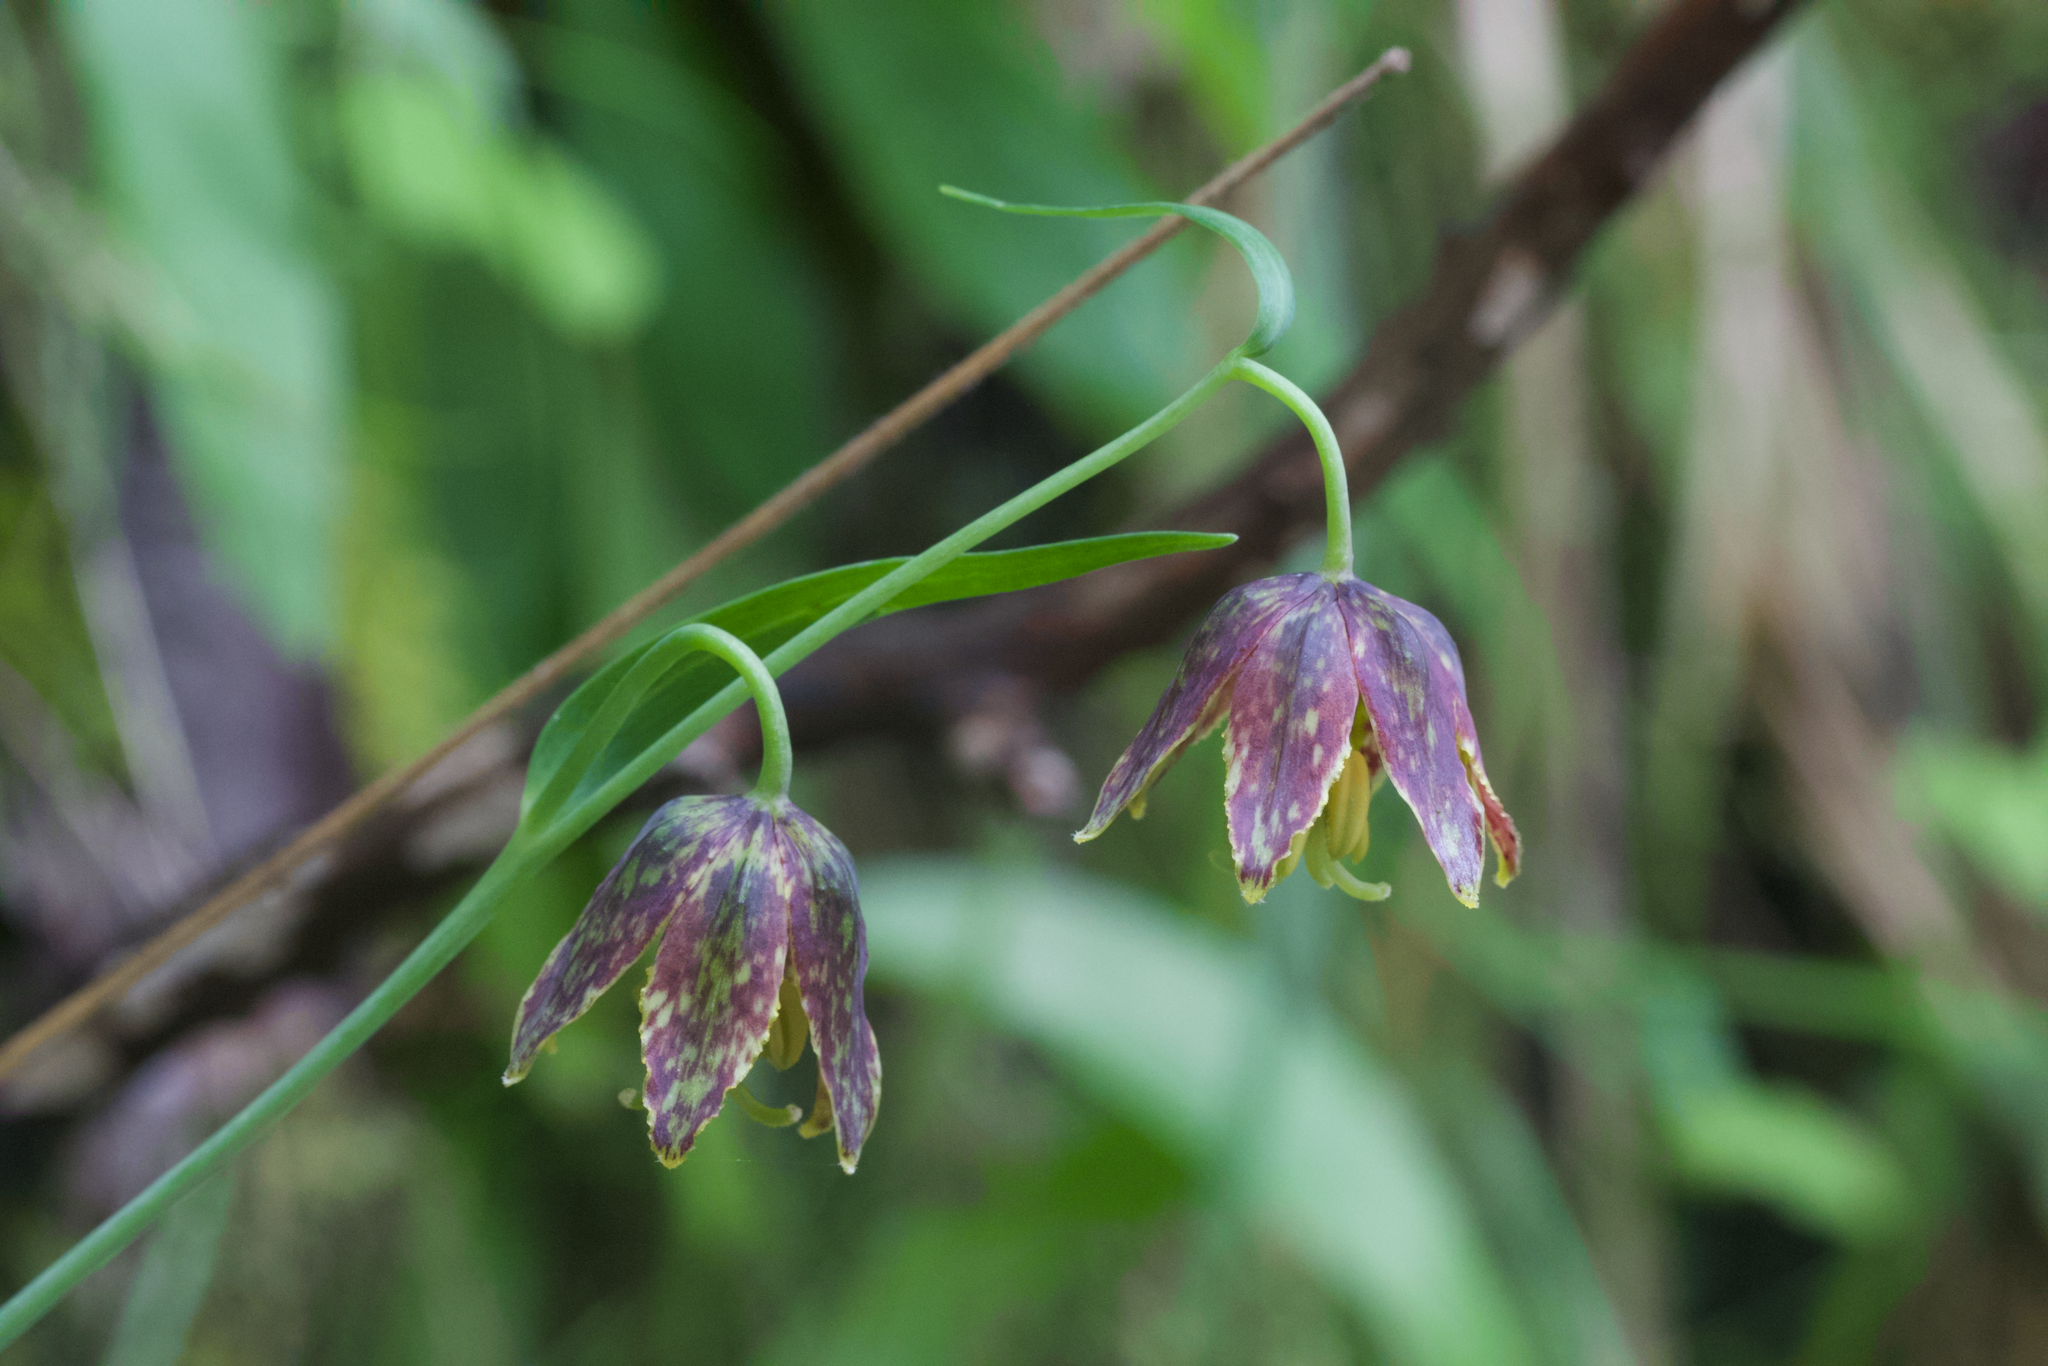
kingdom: Plantae
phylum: Tracheophyta
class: Liliopsida
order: Liliales
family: Liliaceae
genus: Fritillaria
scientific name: Fritillaria affinis
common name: Ojai fritillary
